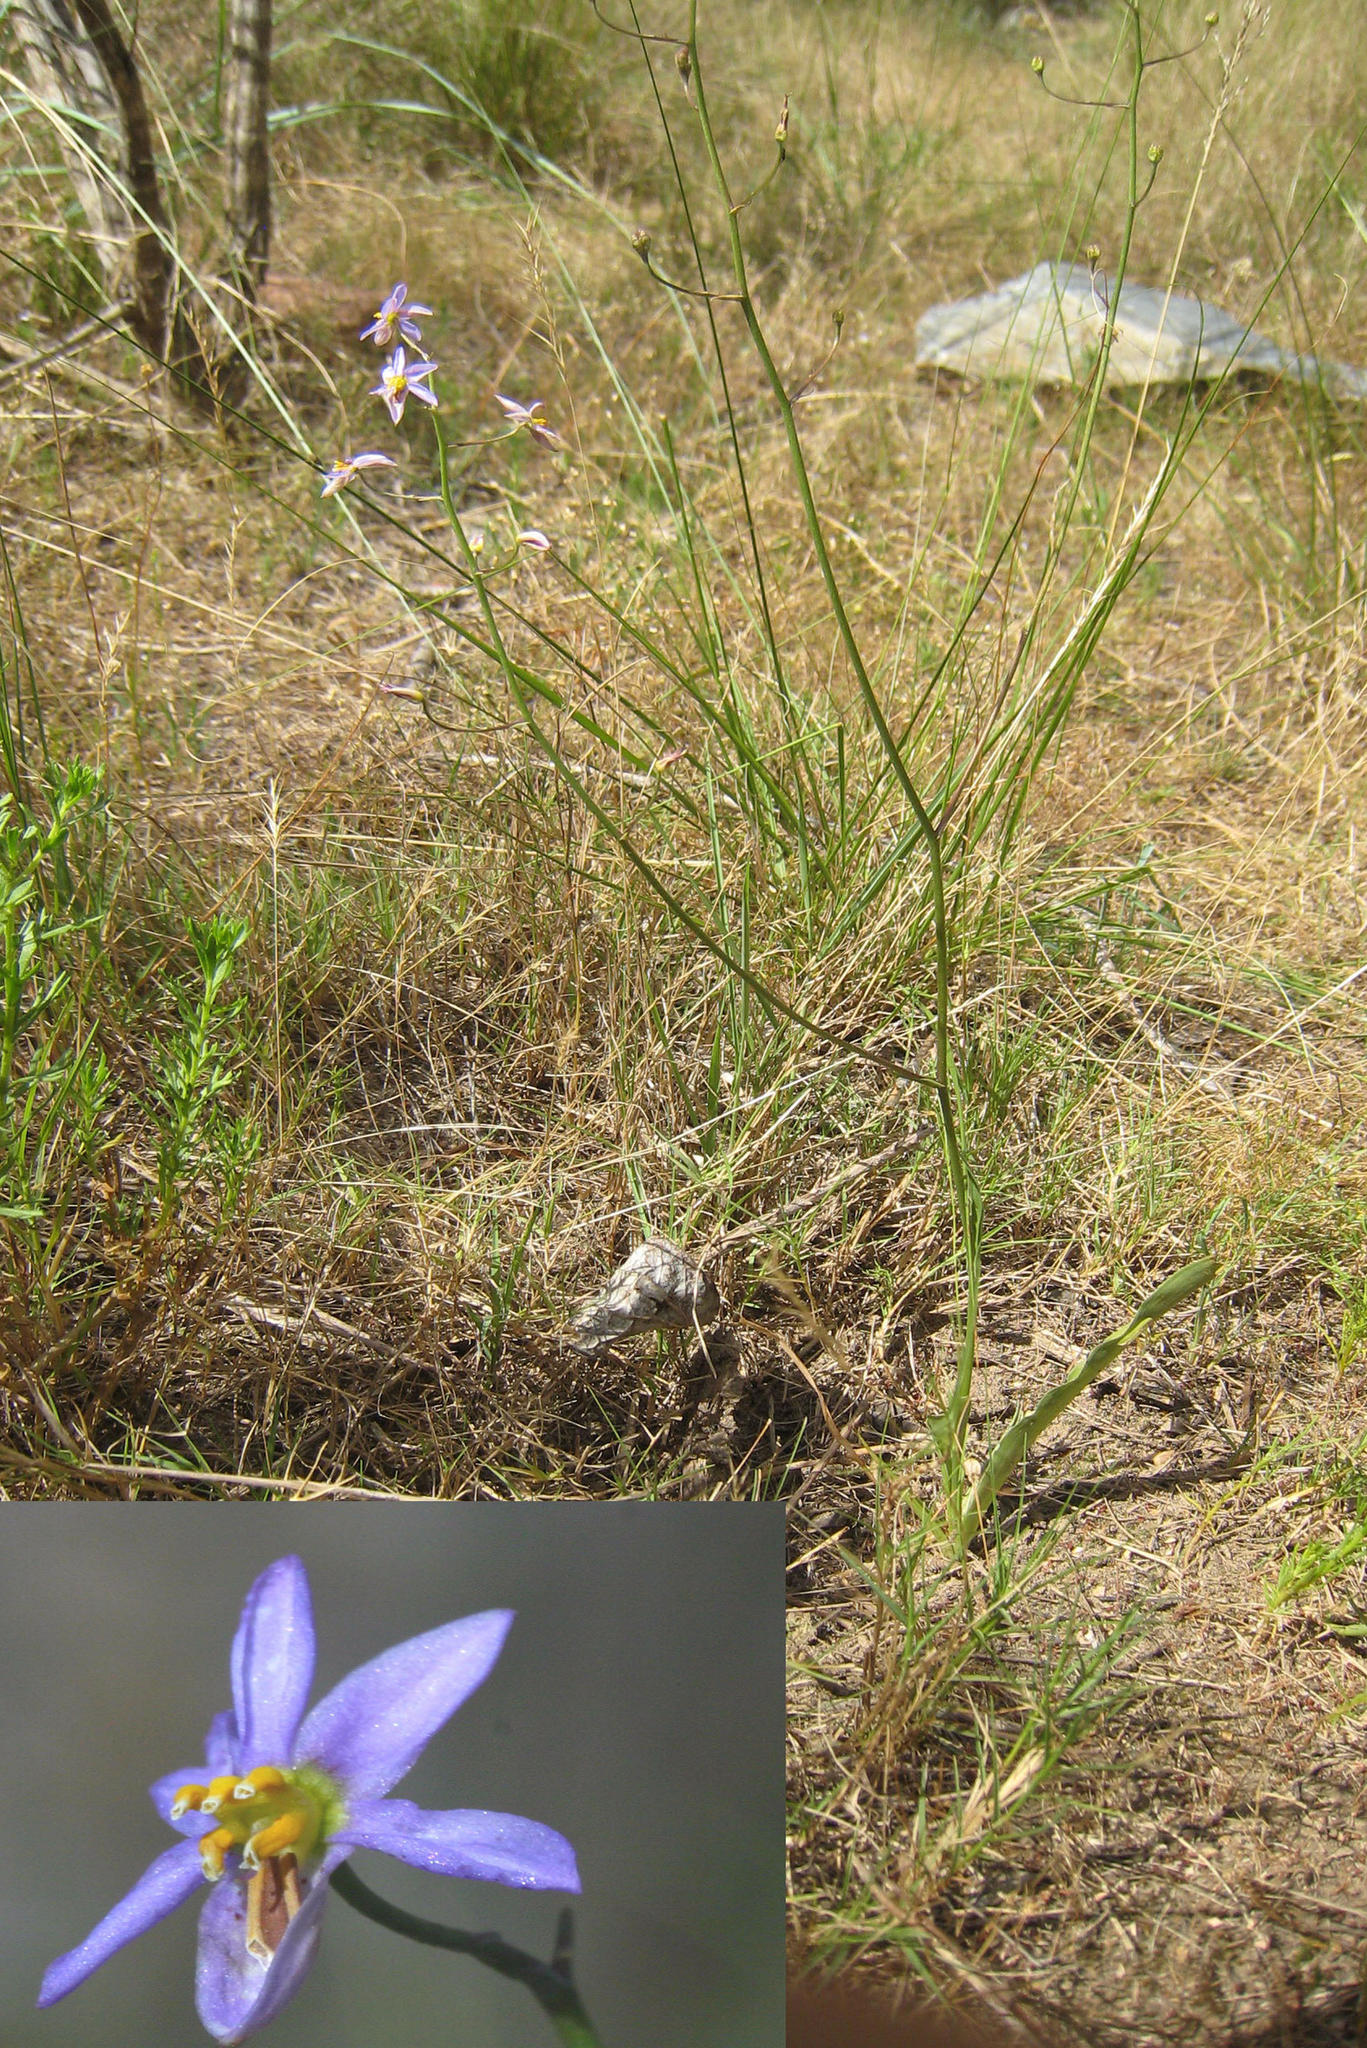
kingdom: Plantae
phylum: Tracheophyta
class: Liliopsida
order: Asparagales
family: Tecophilaeaceae
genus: Cyanella
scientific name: Cyanella hyacinthoides
